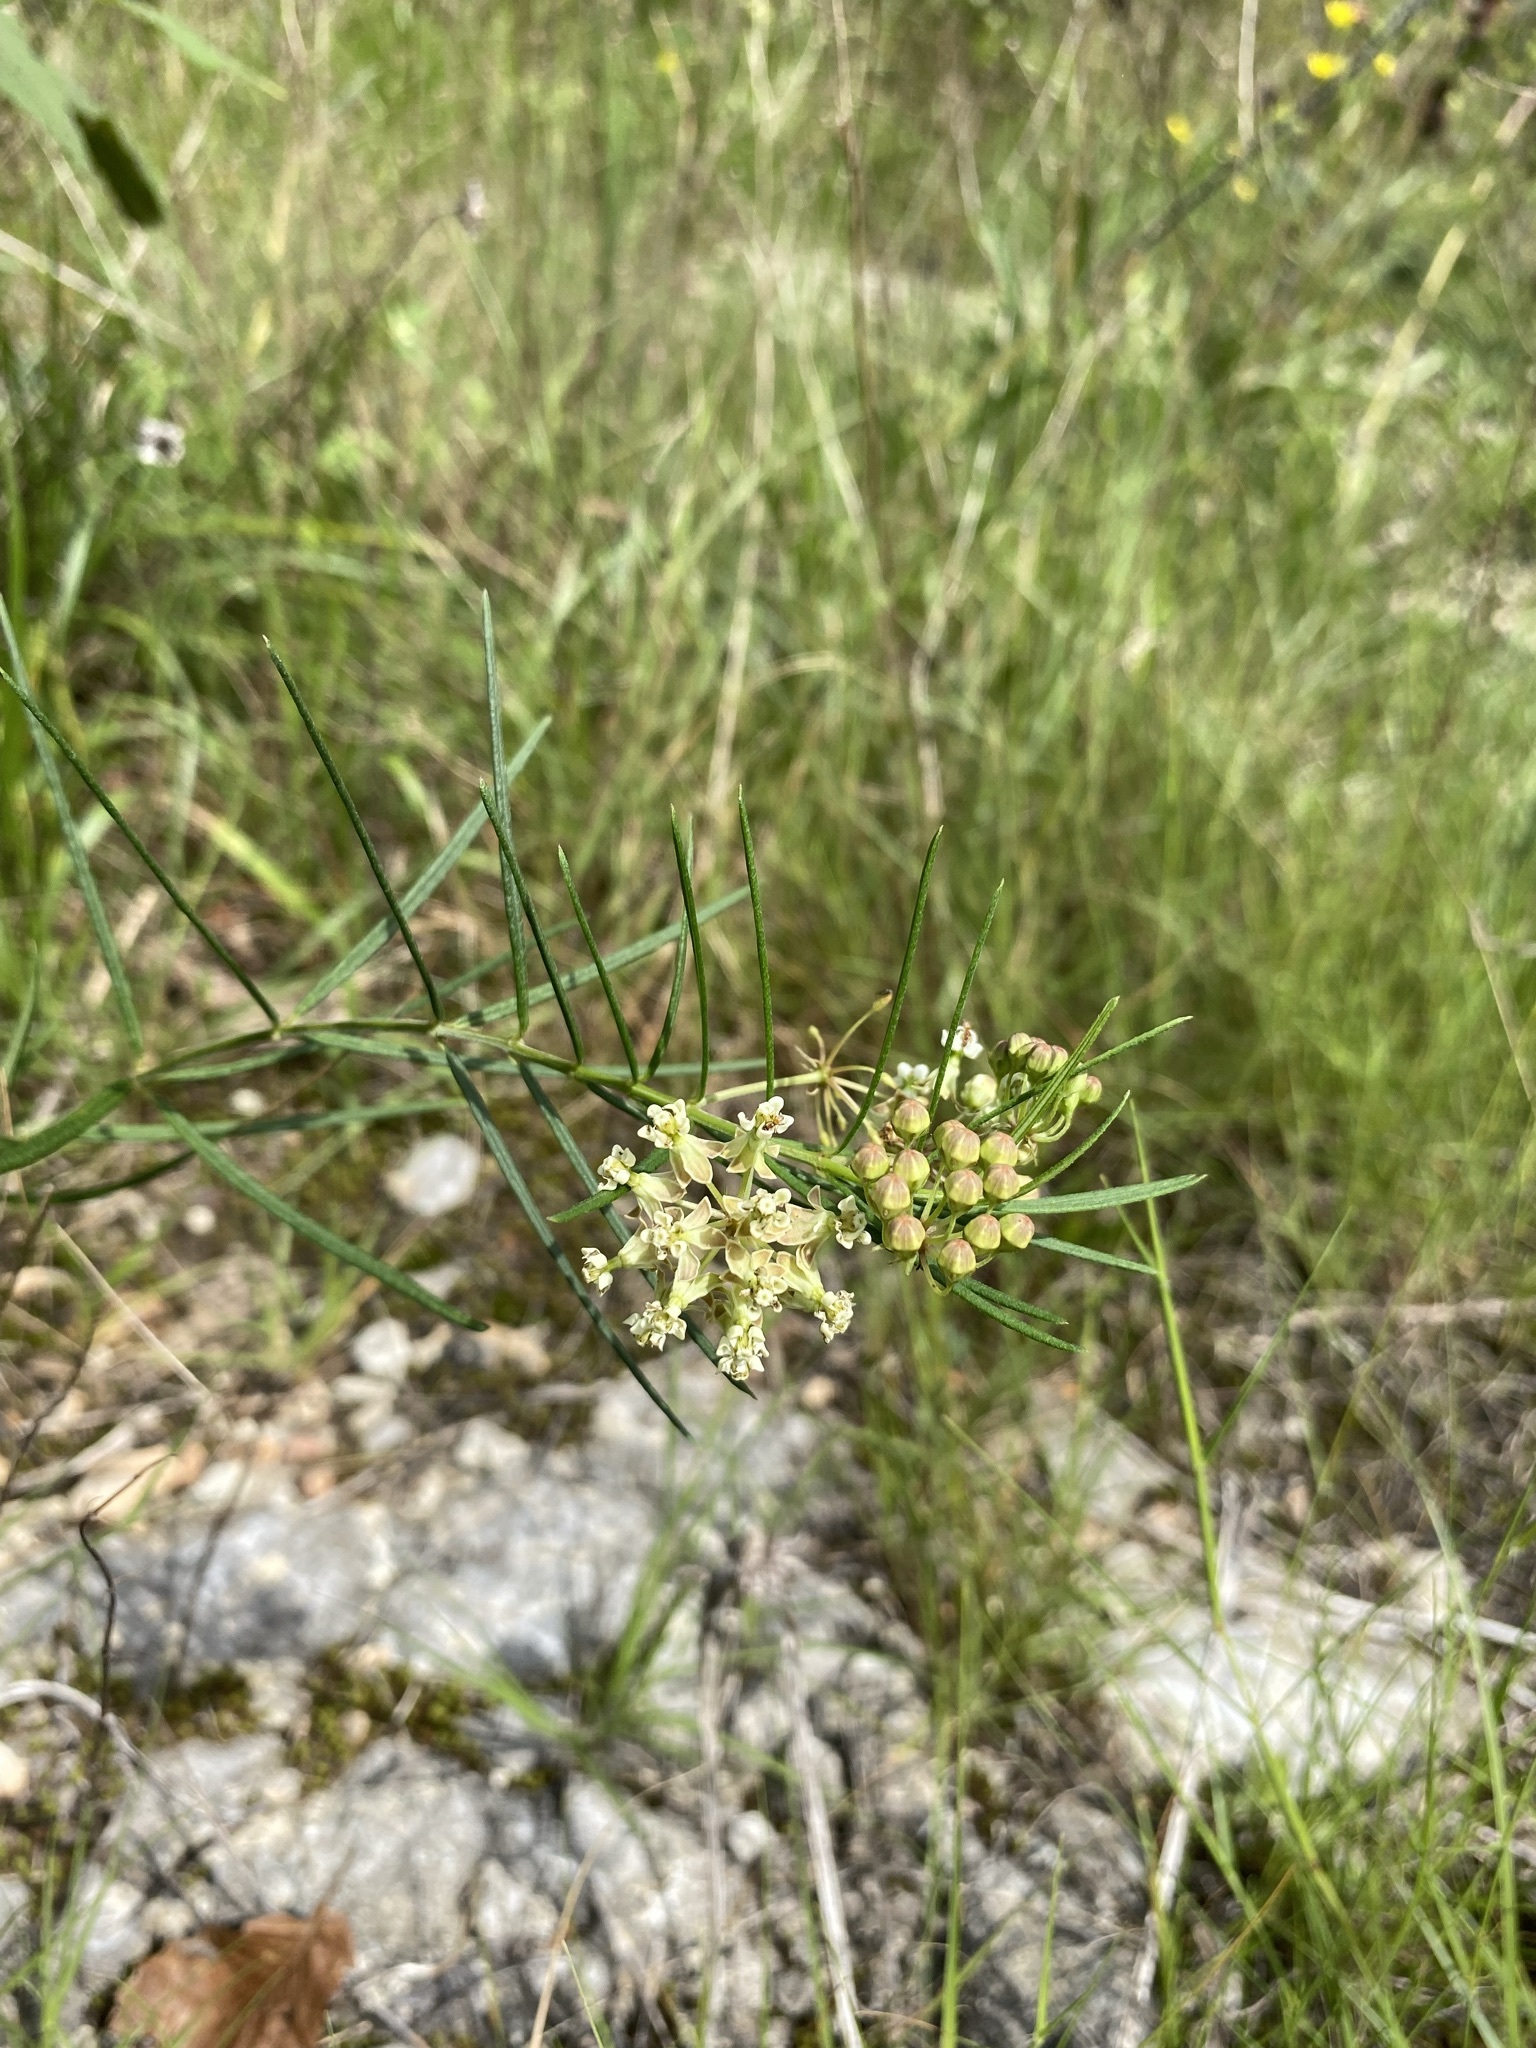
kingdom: Plantae
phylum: Tracheophyta
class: Magnoliopsida
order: Gentianales
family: Apocynaceae
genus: Asclepias
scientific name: Asclepias verticillata
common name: Eastern whorled milkweed
